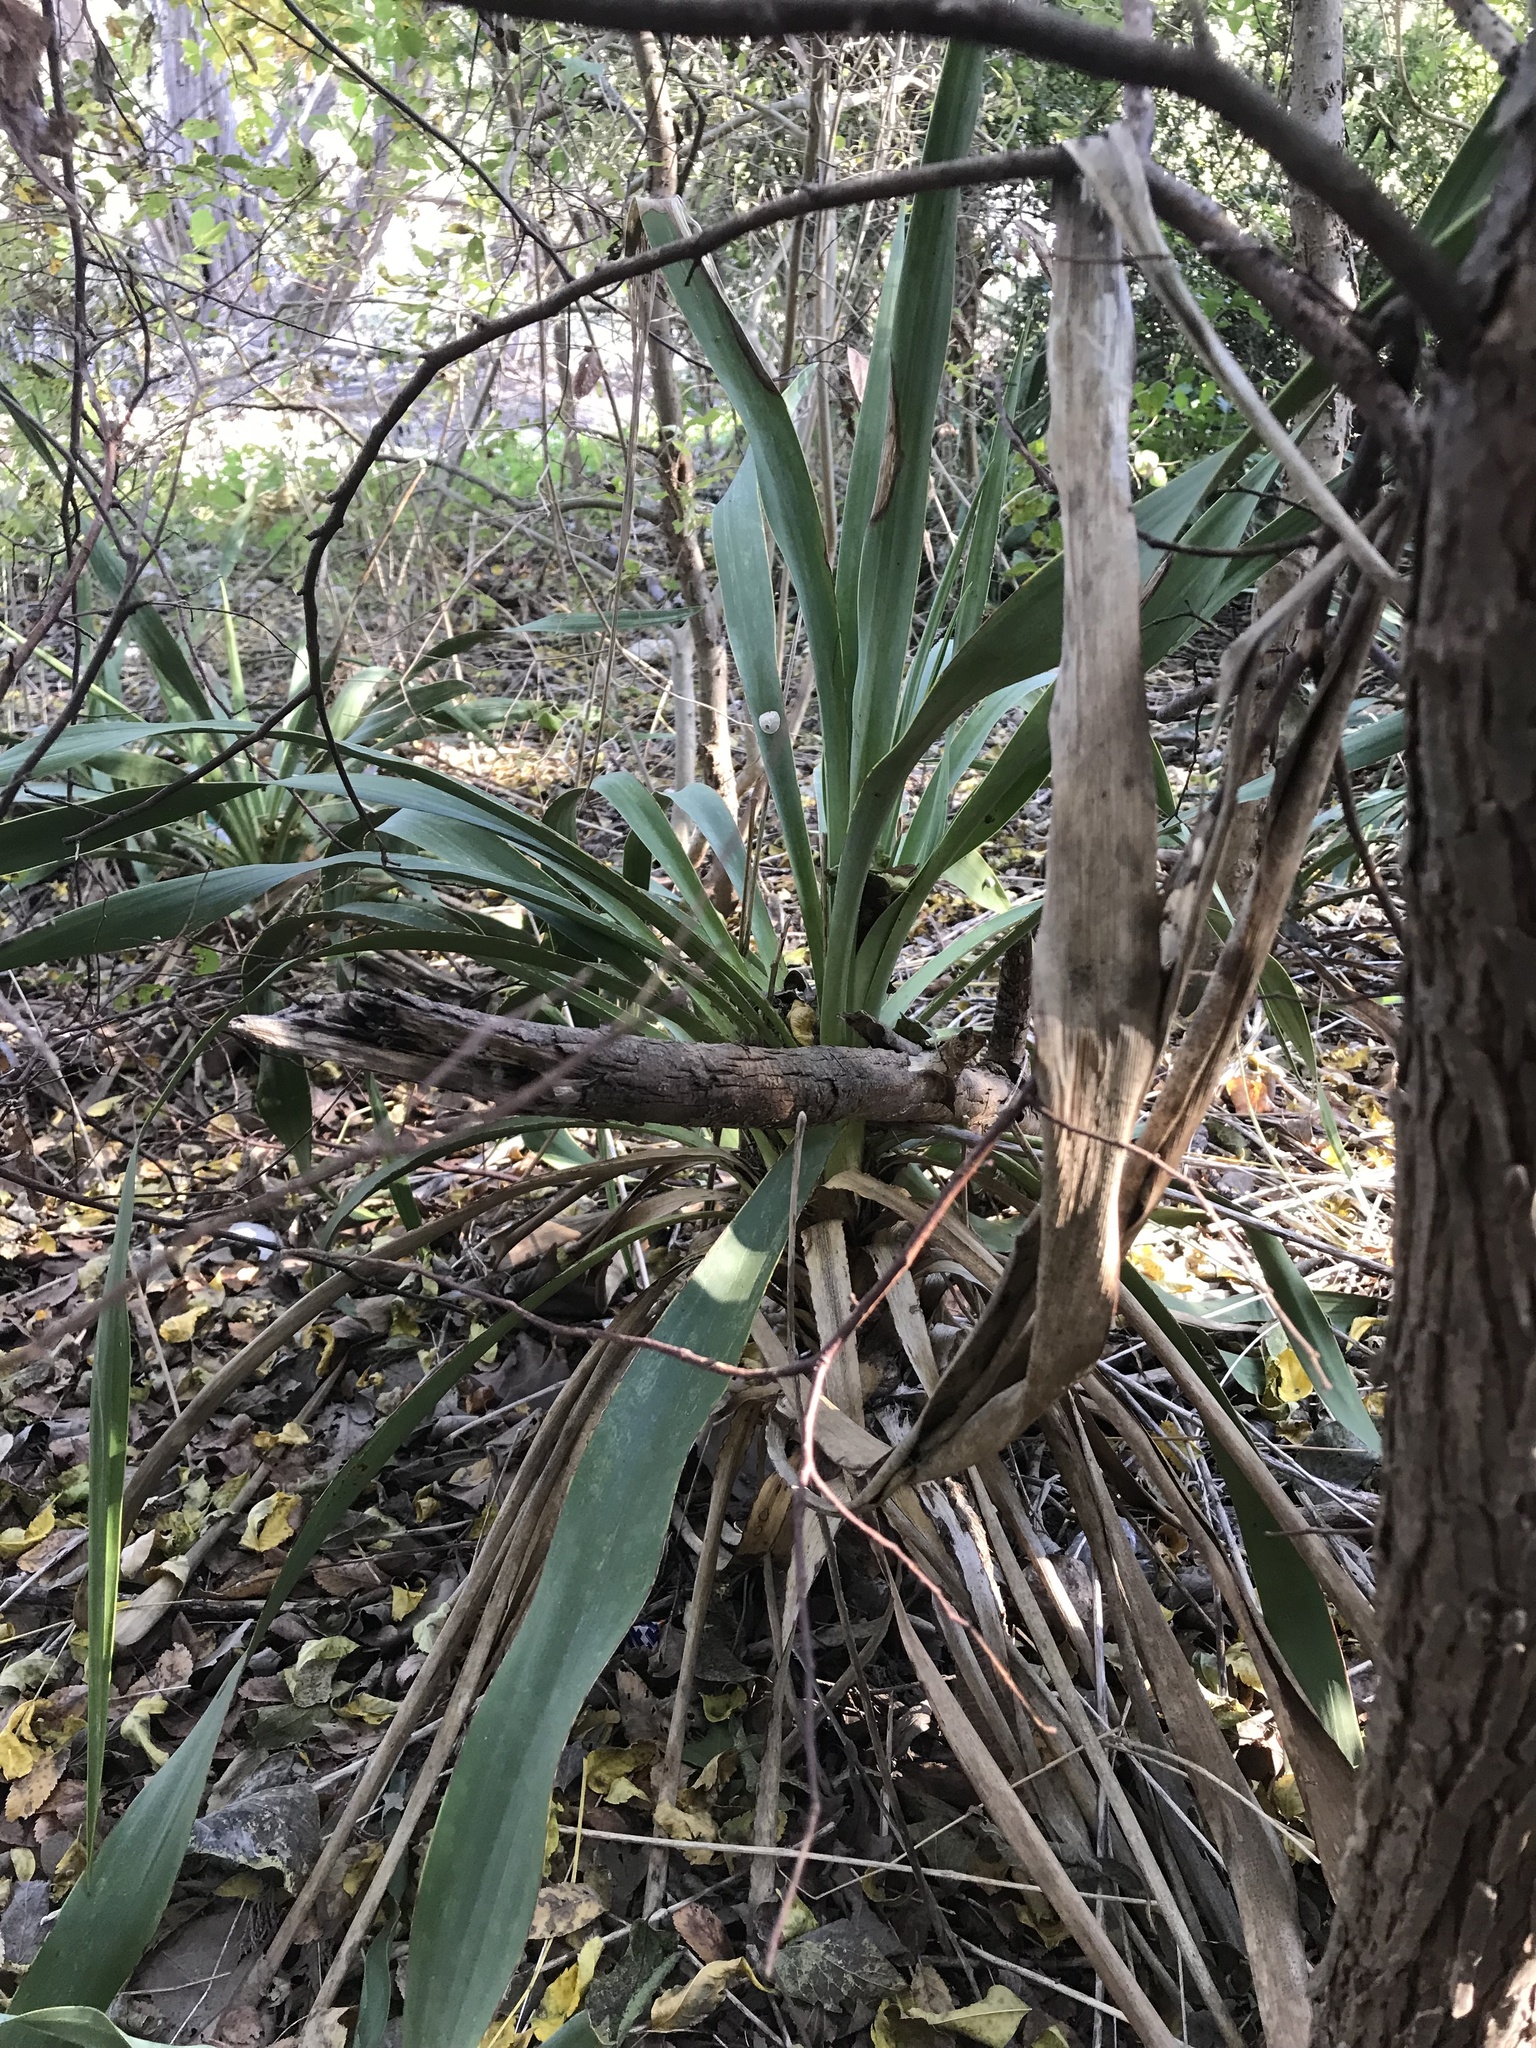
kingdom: Plantae
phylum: Tracheophyta
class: Liliopsida
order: Asparagales
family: Asparagaceae
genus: Yucca
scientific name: Yucca rupicola
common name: Twisted-leaf spanish-dagger
